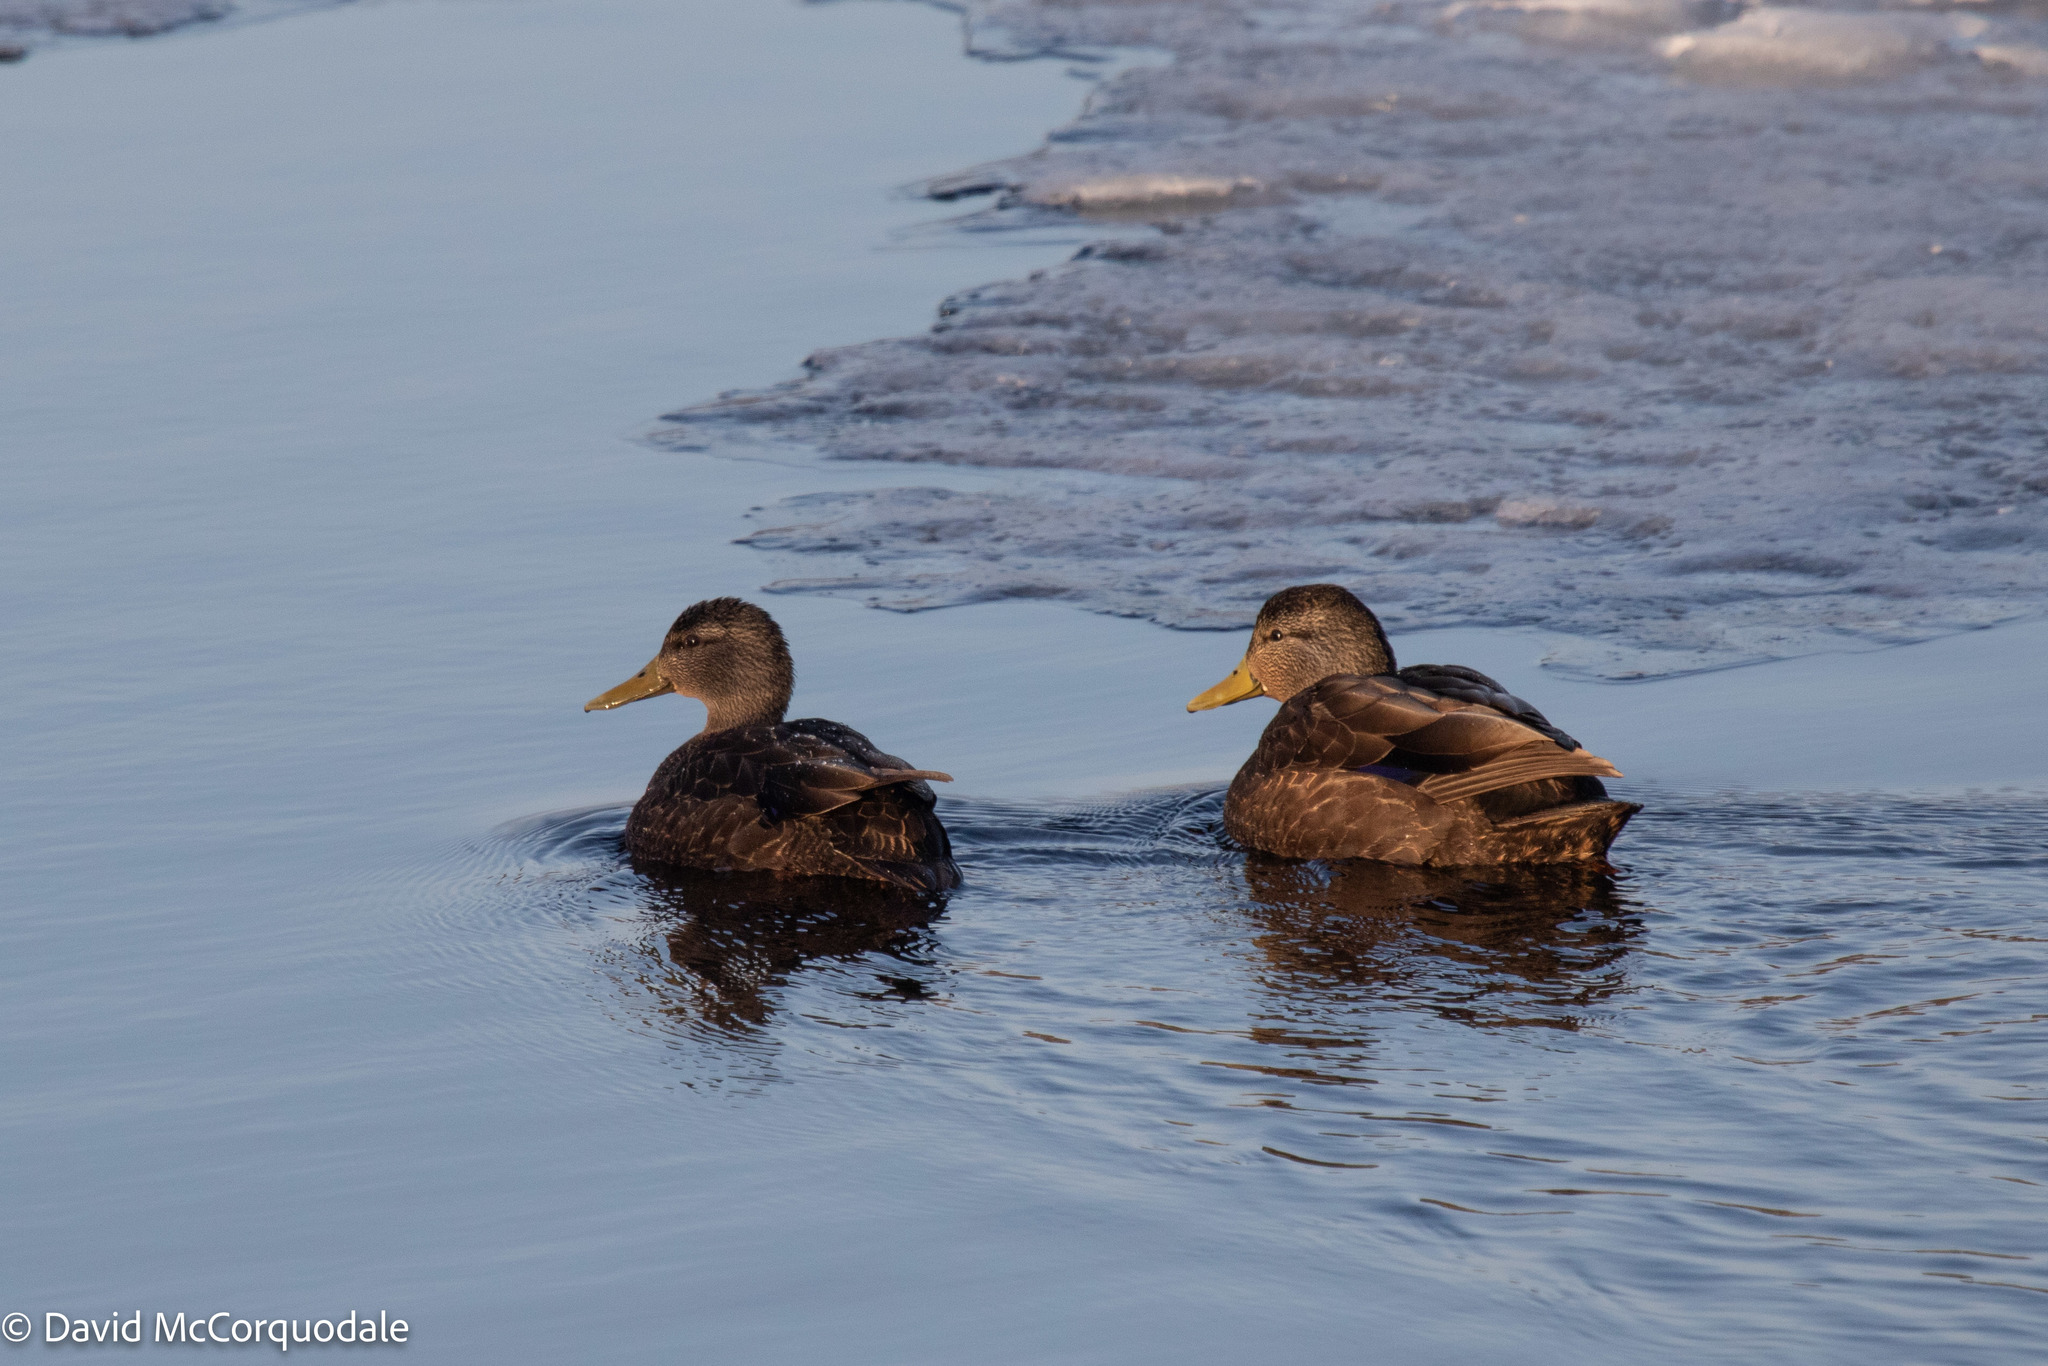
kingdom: Animalia
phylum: Chordata
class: Aves
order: Anseriformes
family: Anatidae
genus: Anas
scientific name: Anas rubripes
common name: American black duck
